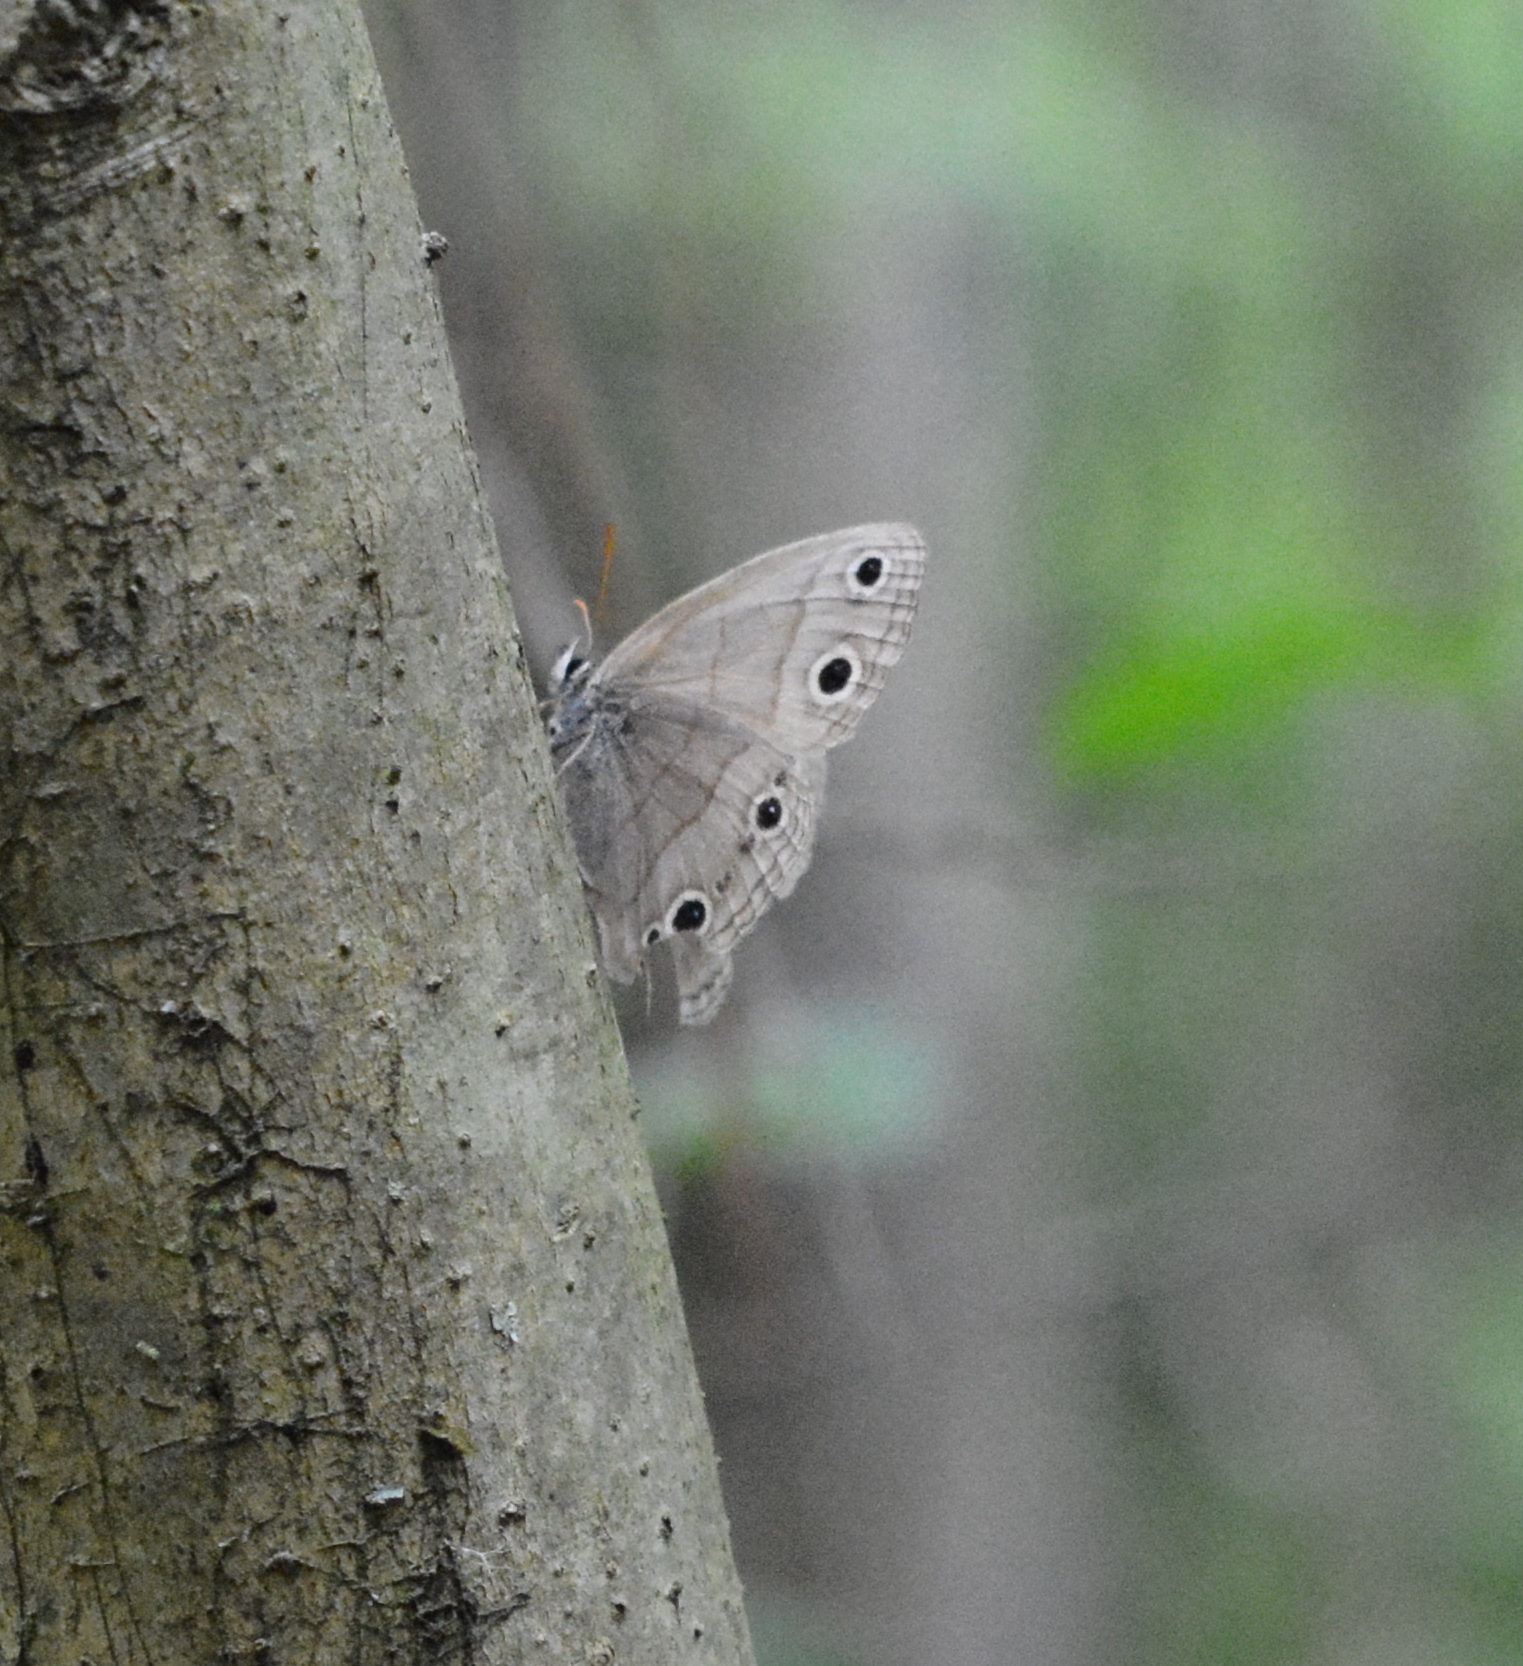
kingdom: Animalia
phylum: Arthropoda
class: Insecta
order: Lepidoptera
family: Nymphalidae
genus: Euptychia
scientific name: Euptychia cymela
